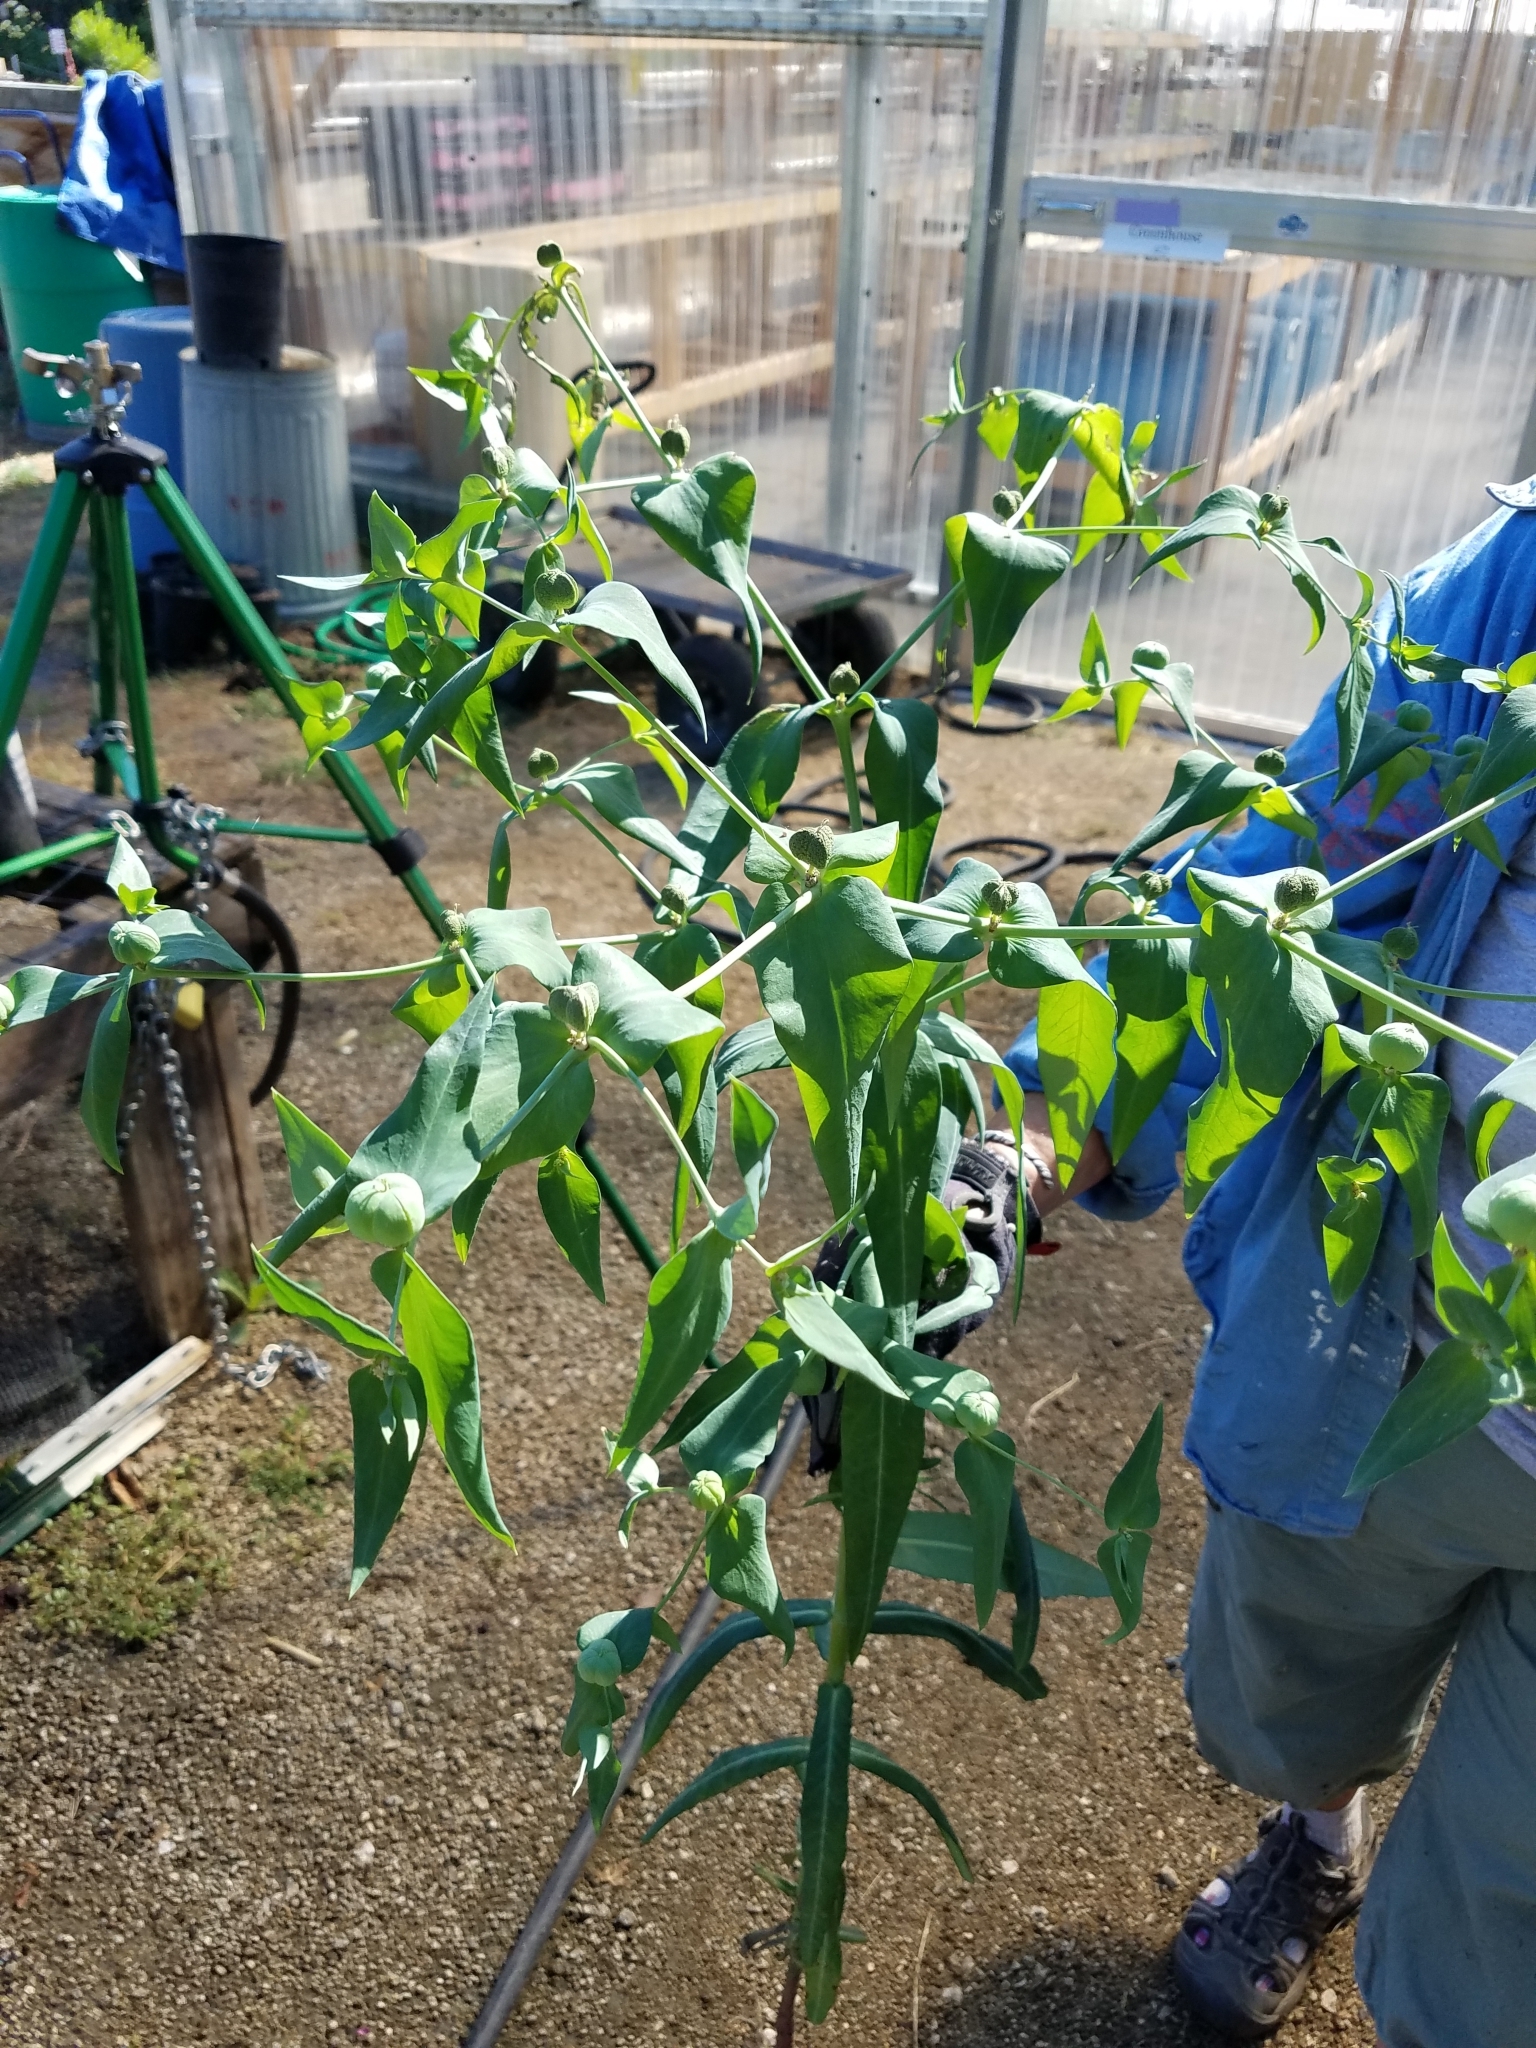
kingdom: Plantae
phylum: Tracheophyta
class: Magnoliopsida
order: Malpighiales
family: Euphorbiaceae
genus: Euphorbia
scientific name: Euphorbia lathyris
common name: Caper spurge
